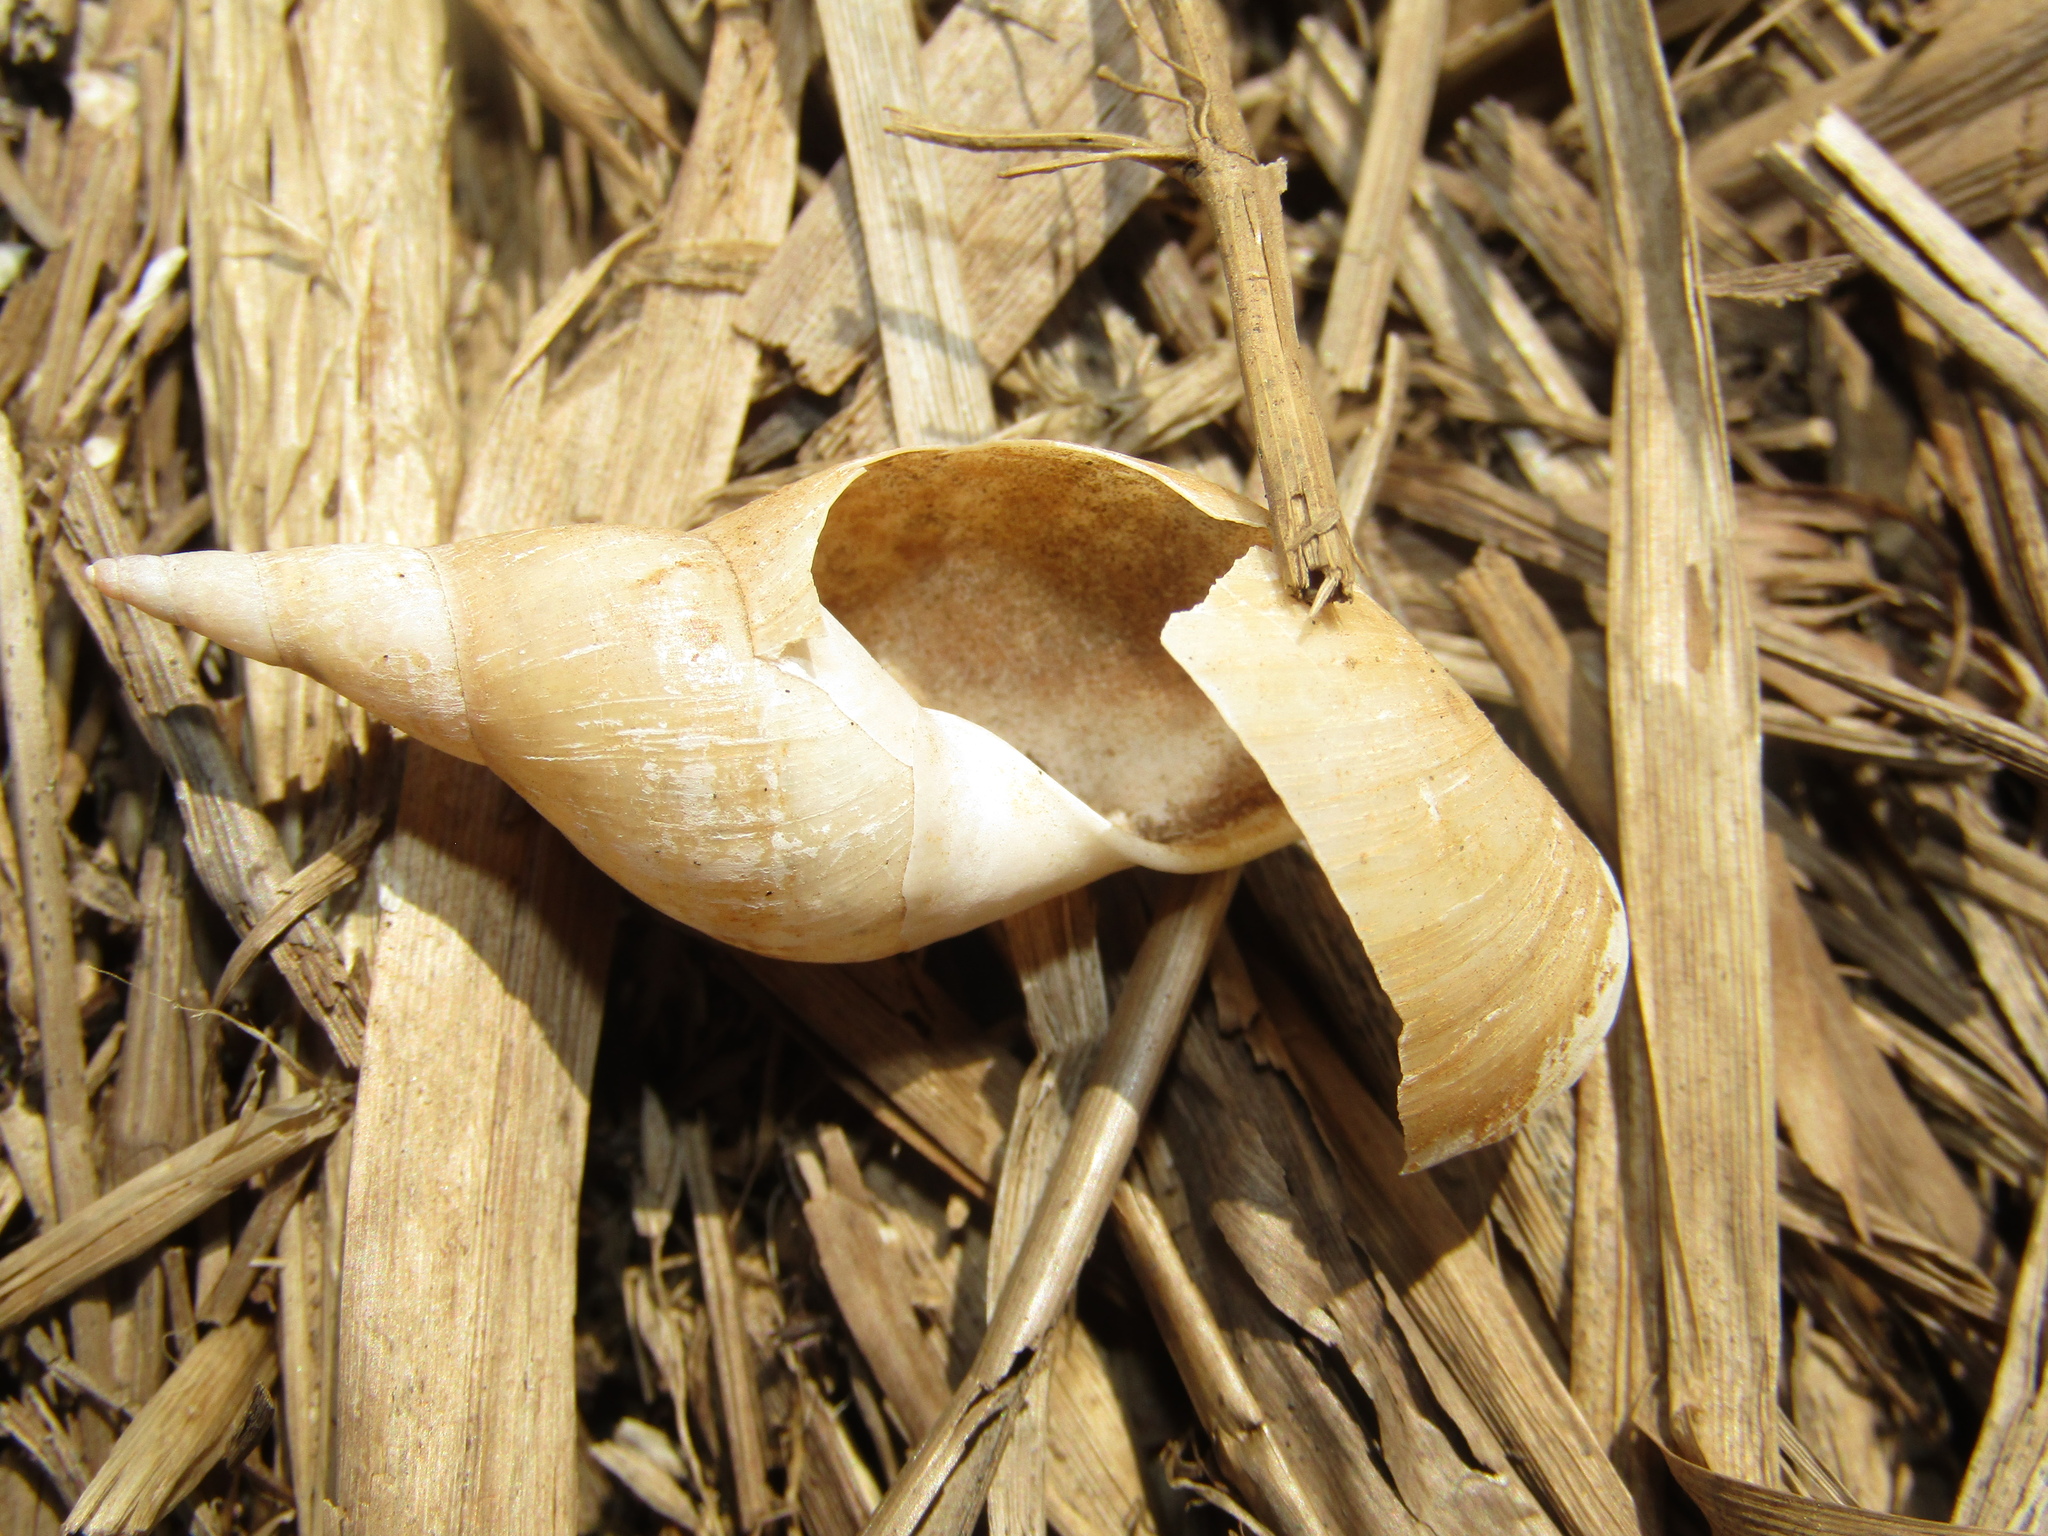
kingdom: Animalia
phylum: Mollusca
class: Gastropoda
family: Lymnaeidae
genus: Lymnaea
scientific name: Lymnaea stagnalis
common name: Great pond snail
